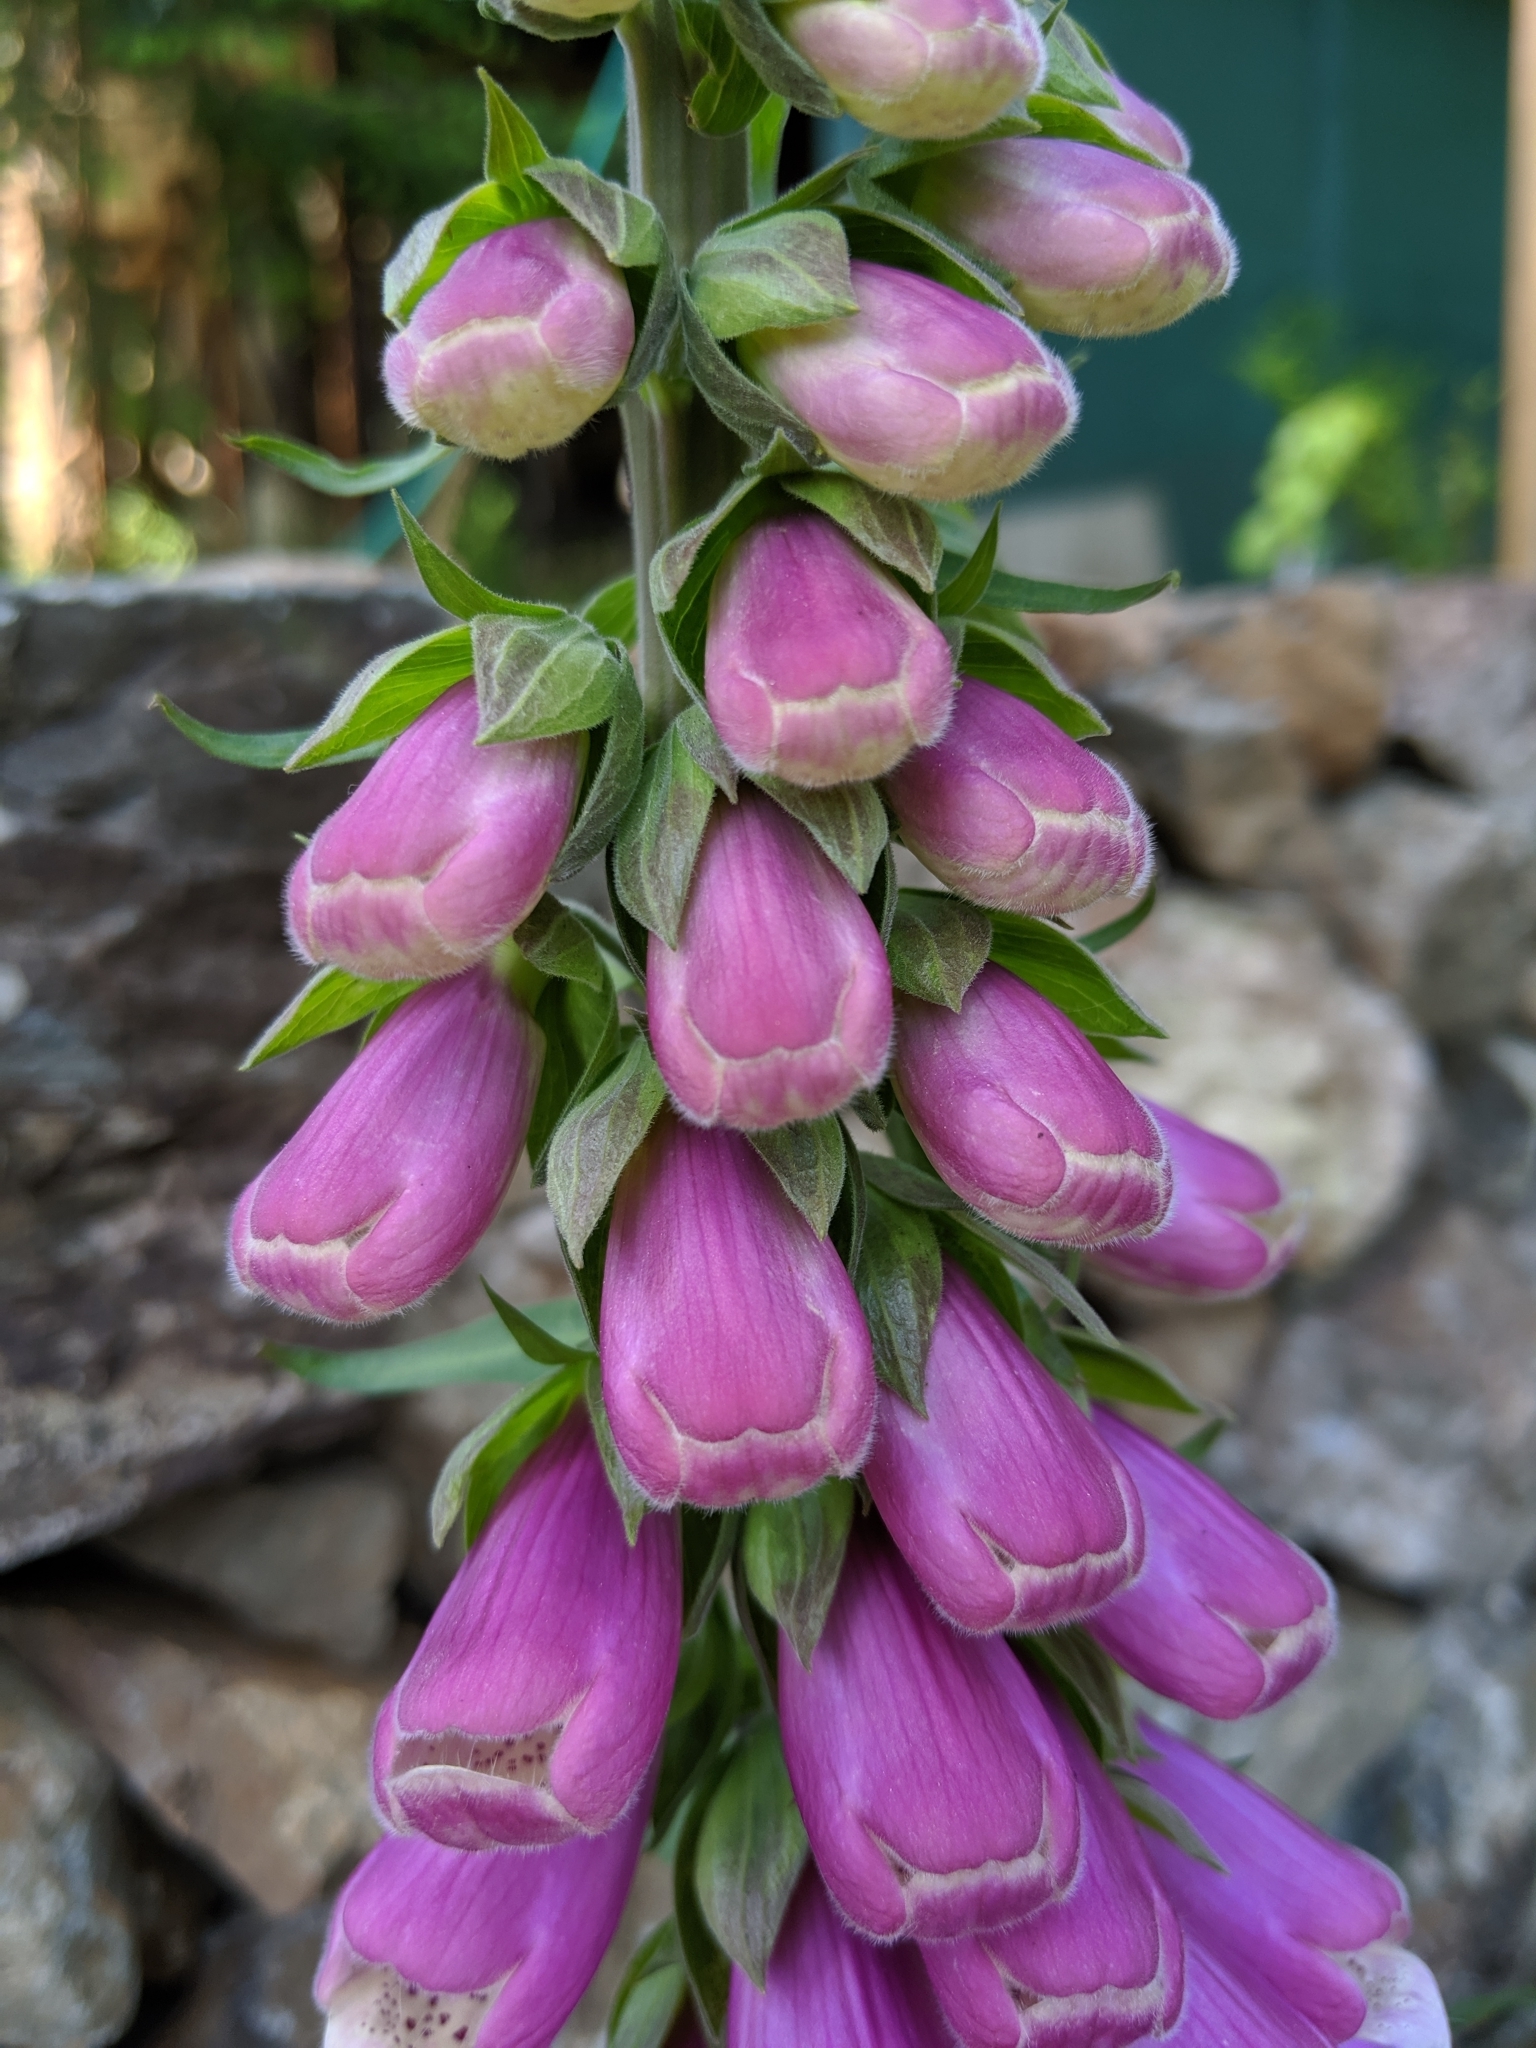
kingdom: Plantae
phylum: Tracheophyta
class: Magnoliopsida
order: Lamiales
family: Plantaginaceae
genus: Digitalis
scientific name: Digitalis purpurea
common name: Foxglove
